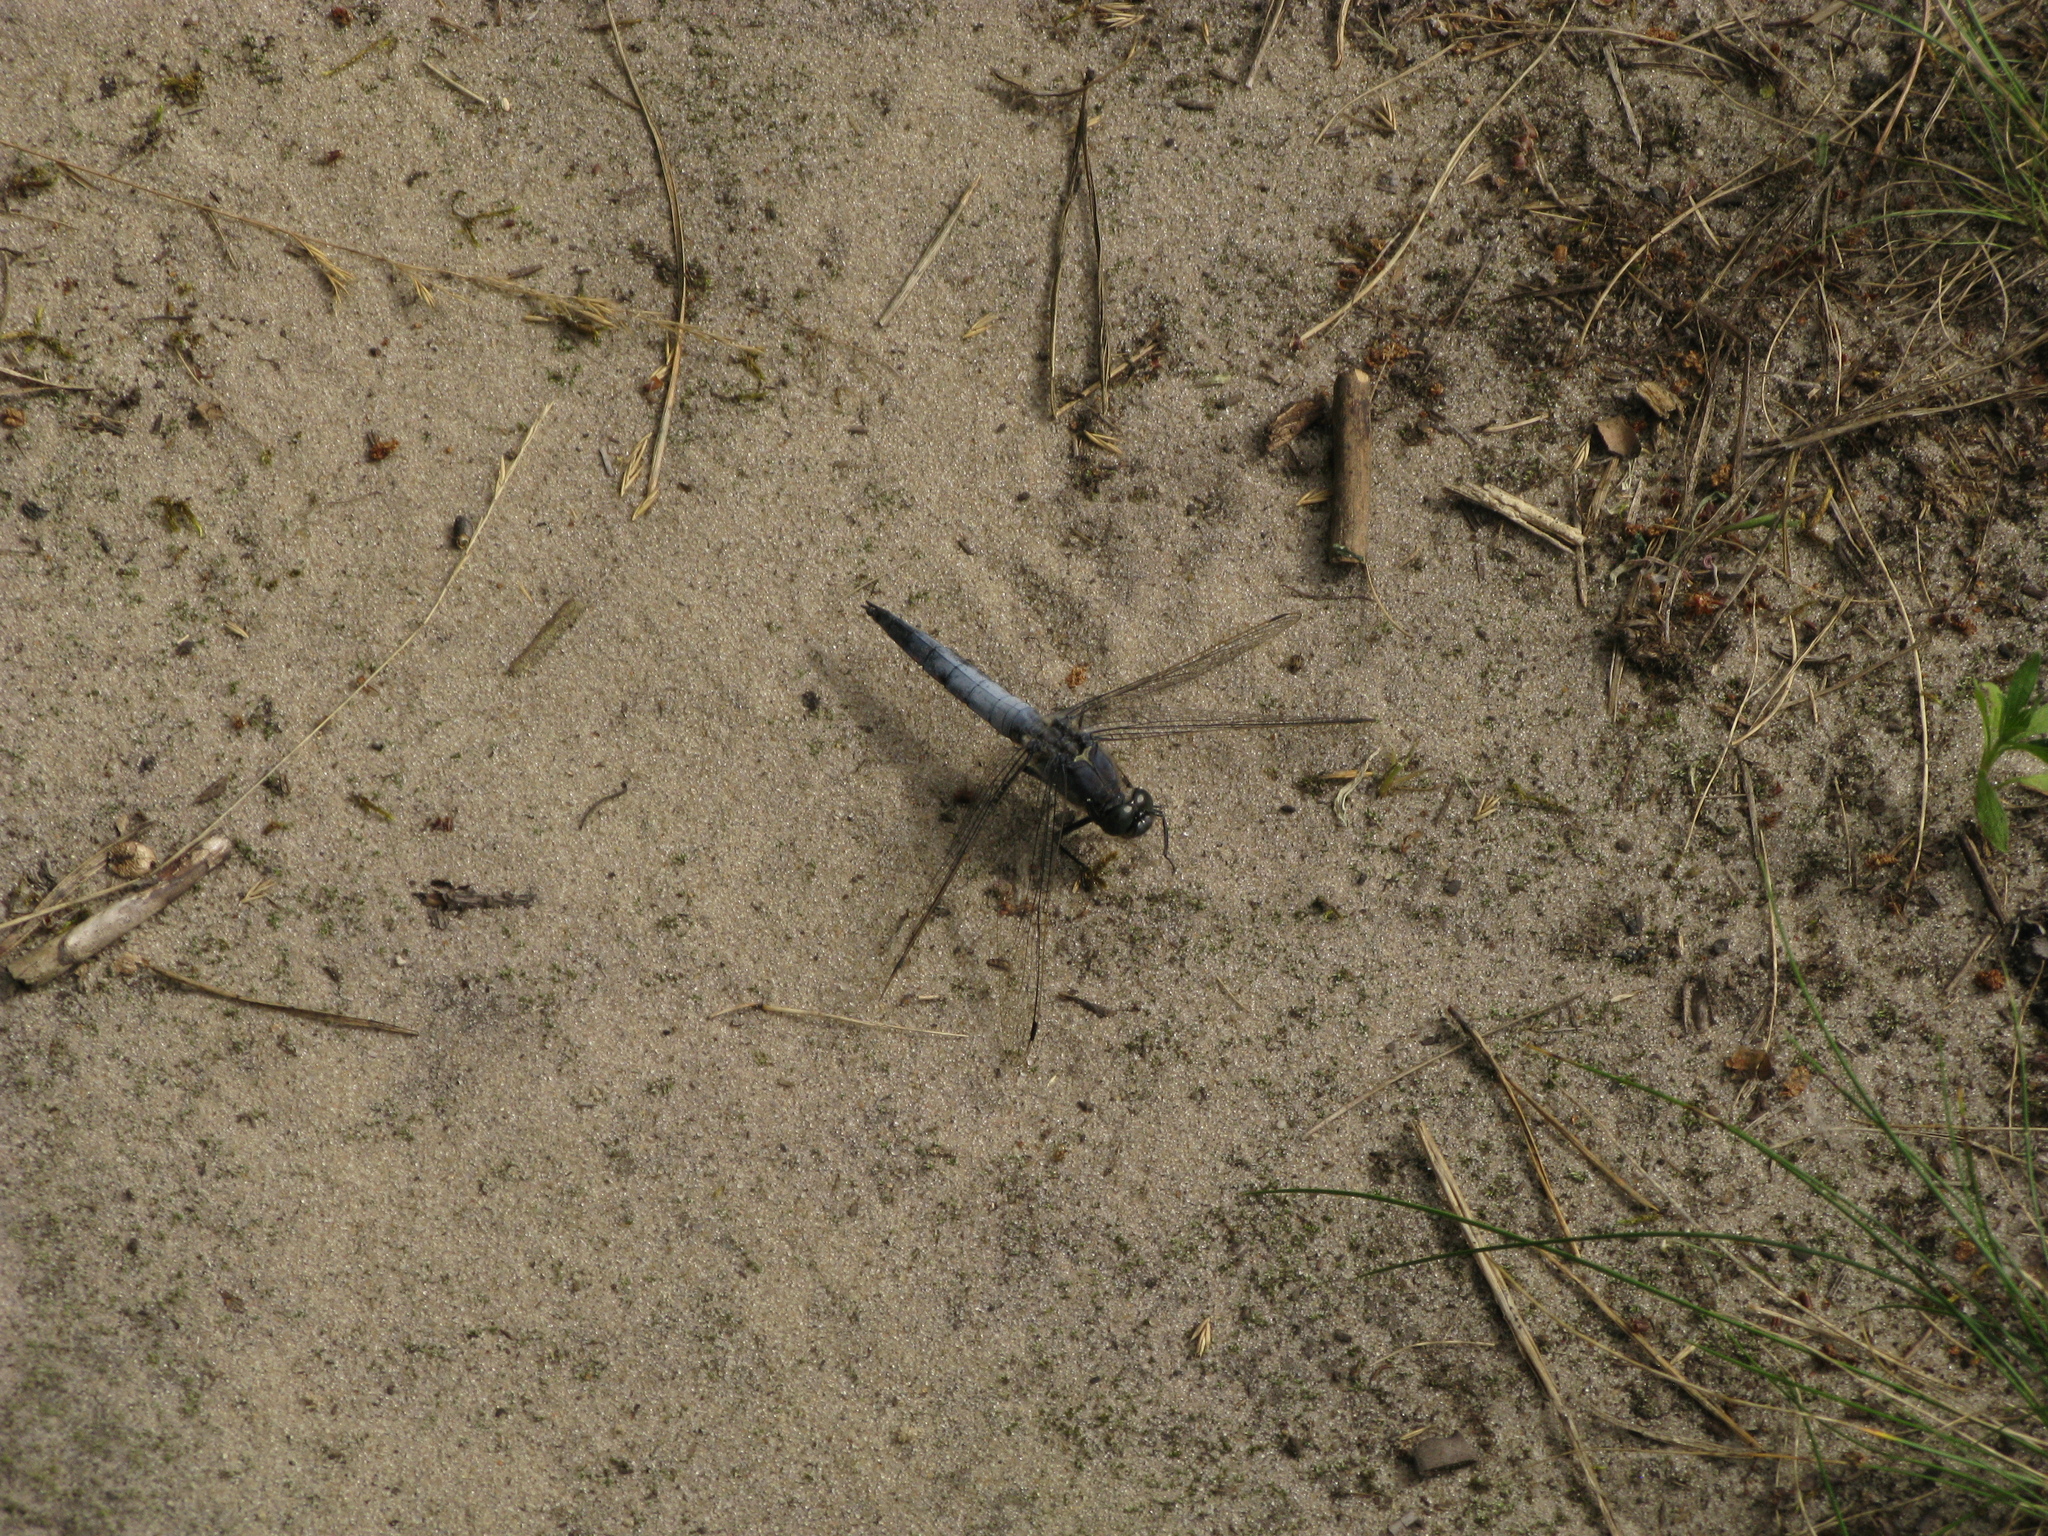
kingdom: Animalia
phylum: Arthropoda
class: Insecta
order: Odonata
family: Libellulidae
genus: Orthetrum
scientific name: Orthetrum cancellatum
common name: Black-tailed skimmer
